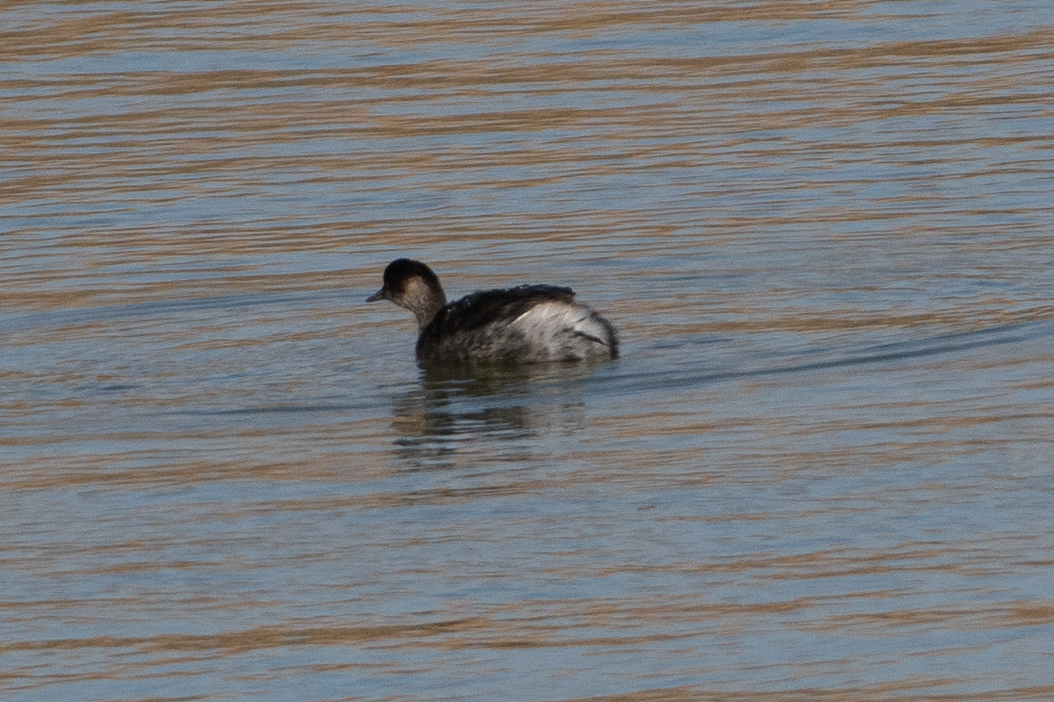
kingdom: Animalia
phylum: Chordata
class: Aves
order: Podicipediformes
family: Podicipedidae
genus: Podiceps
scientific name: Podiceps nigricollis
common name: Black-necked grebe
